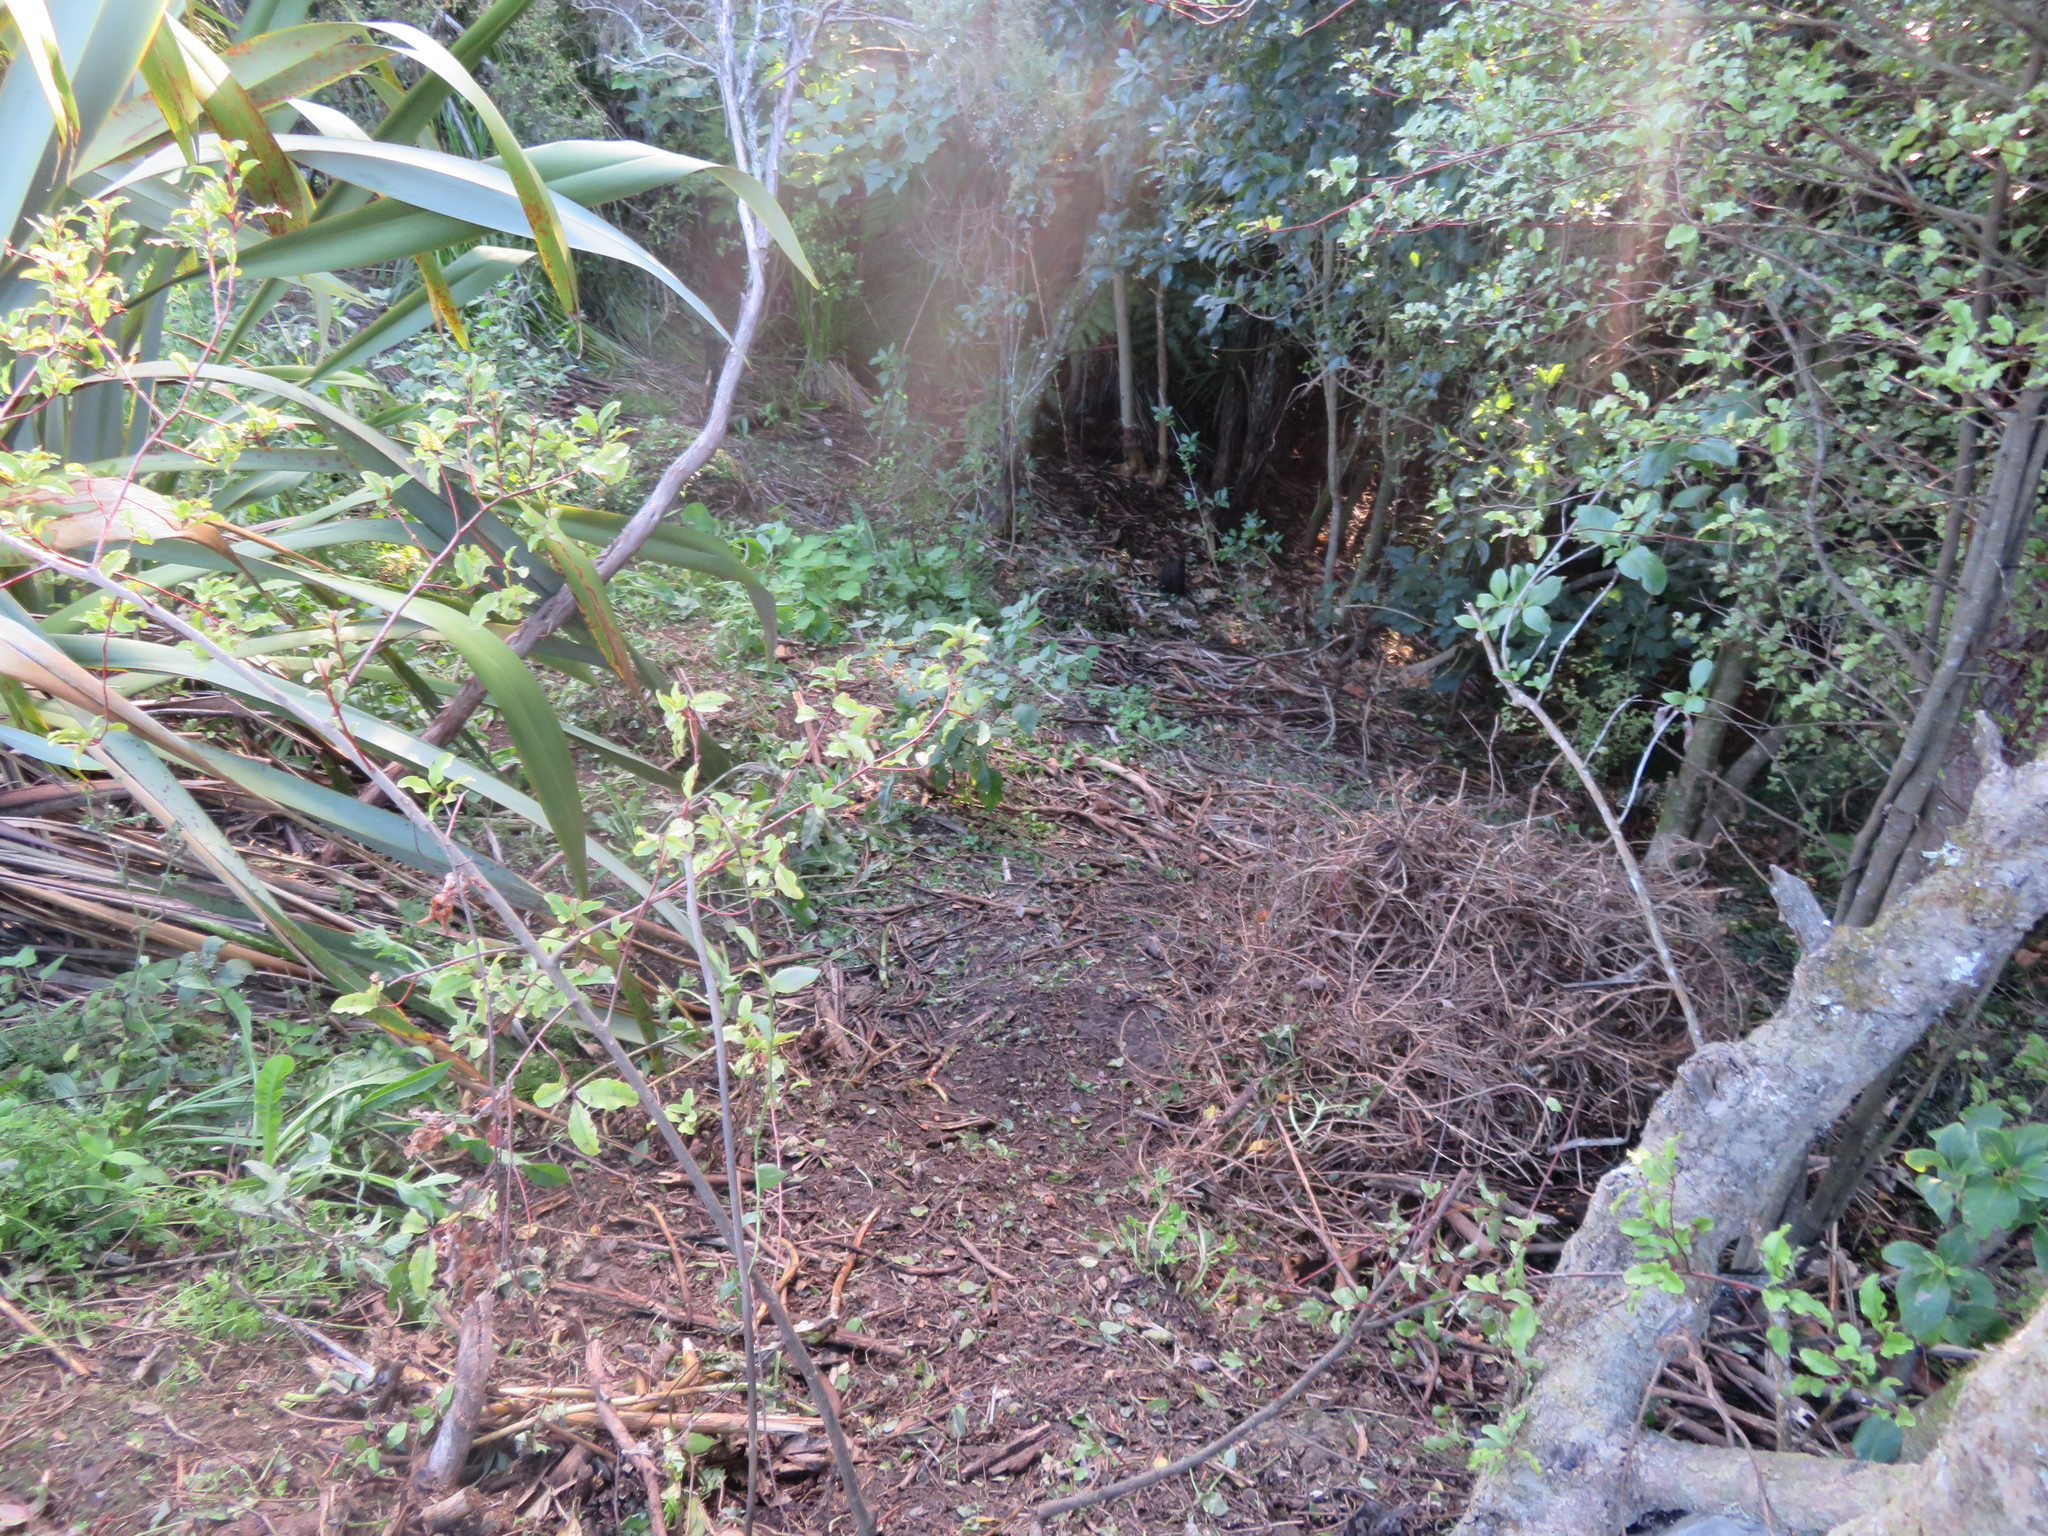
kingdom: Plantae
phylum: Tracheophyta
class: Magnoliopsida
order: Ericales
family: Primulaceae
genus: Myrsine
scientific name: Myrsine australis
